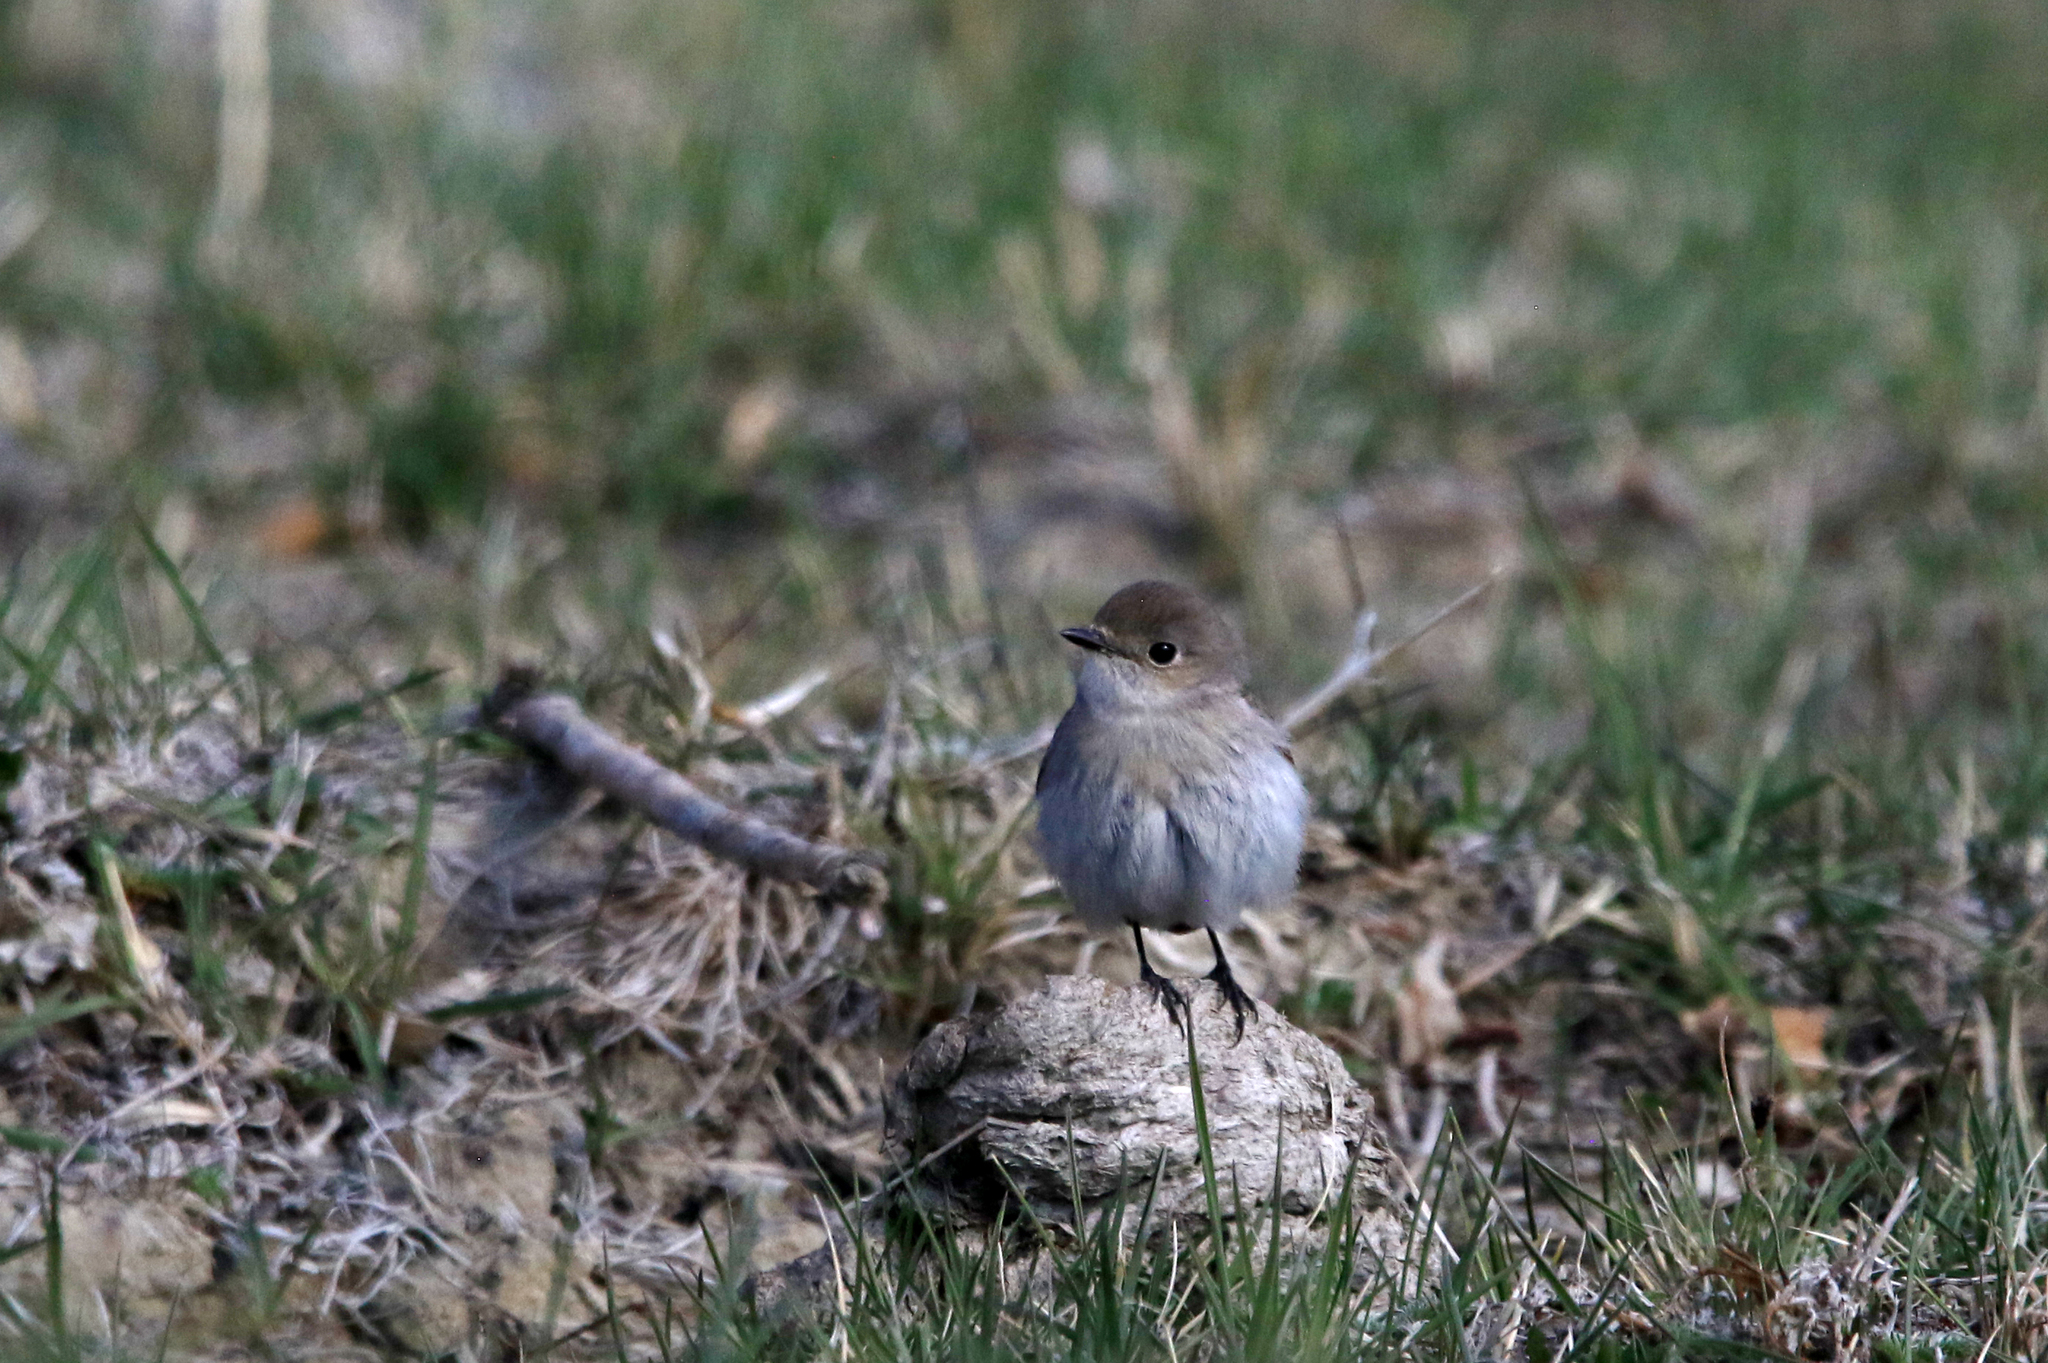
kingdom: Animalia
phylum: Chordata
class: Aves
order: Passeriformes
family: Muscicapidae
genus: Ficedula
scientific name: Ficedula albicilla
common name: Taiga flycatcher
